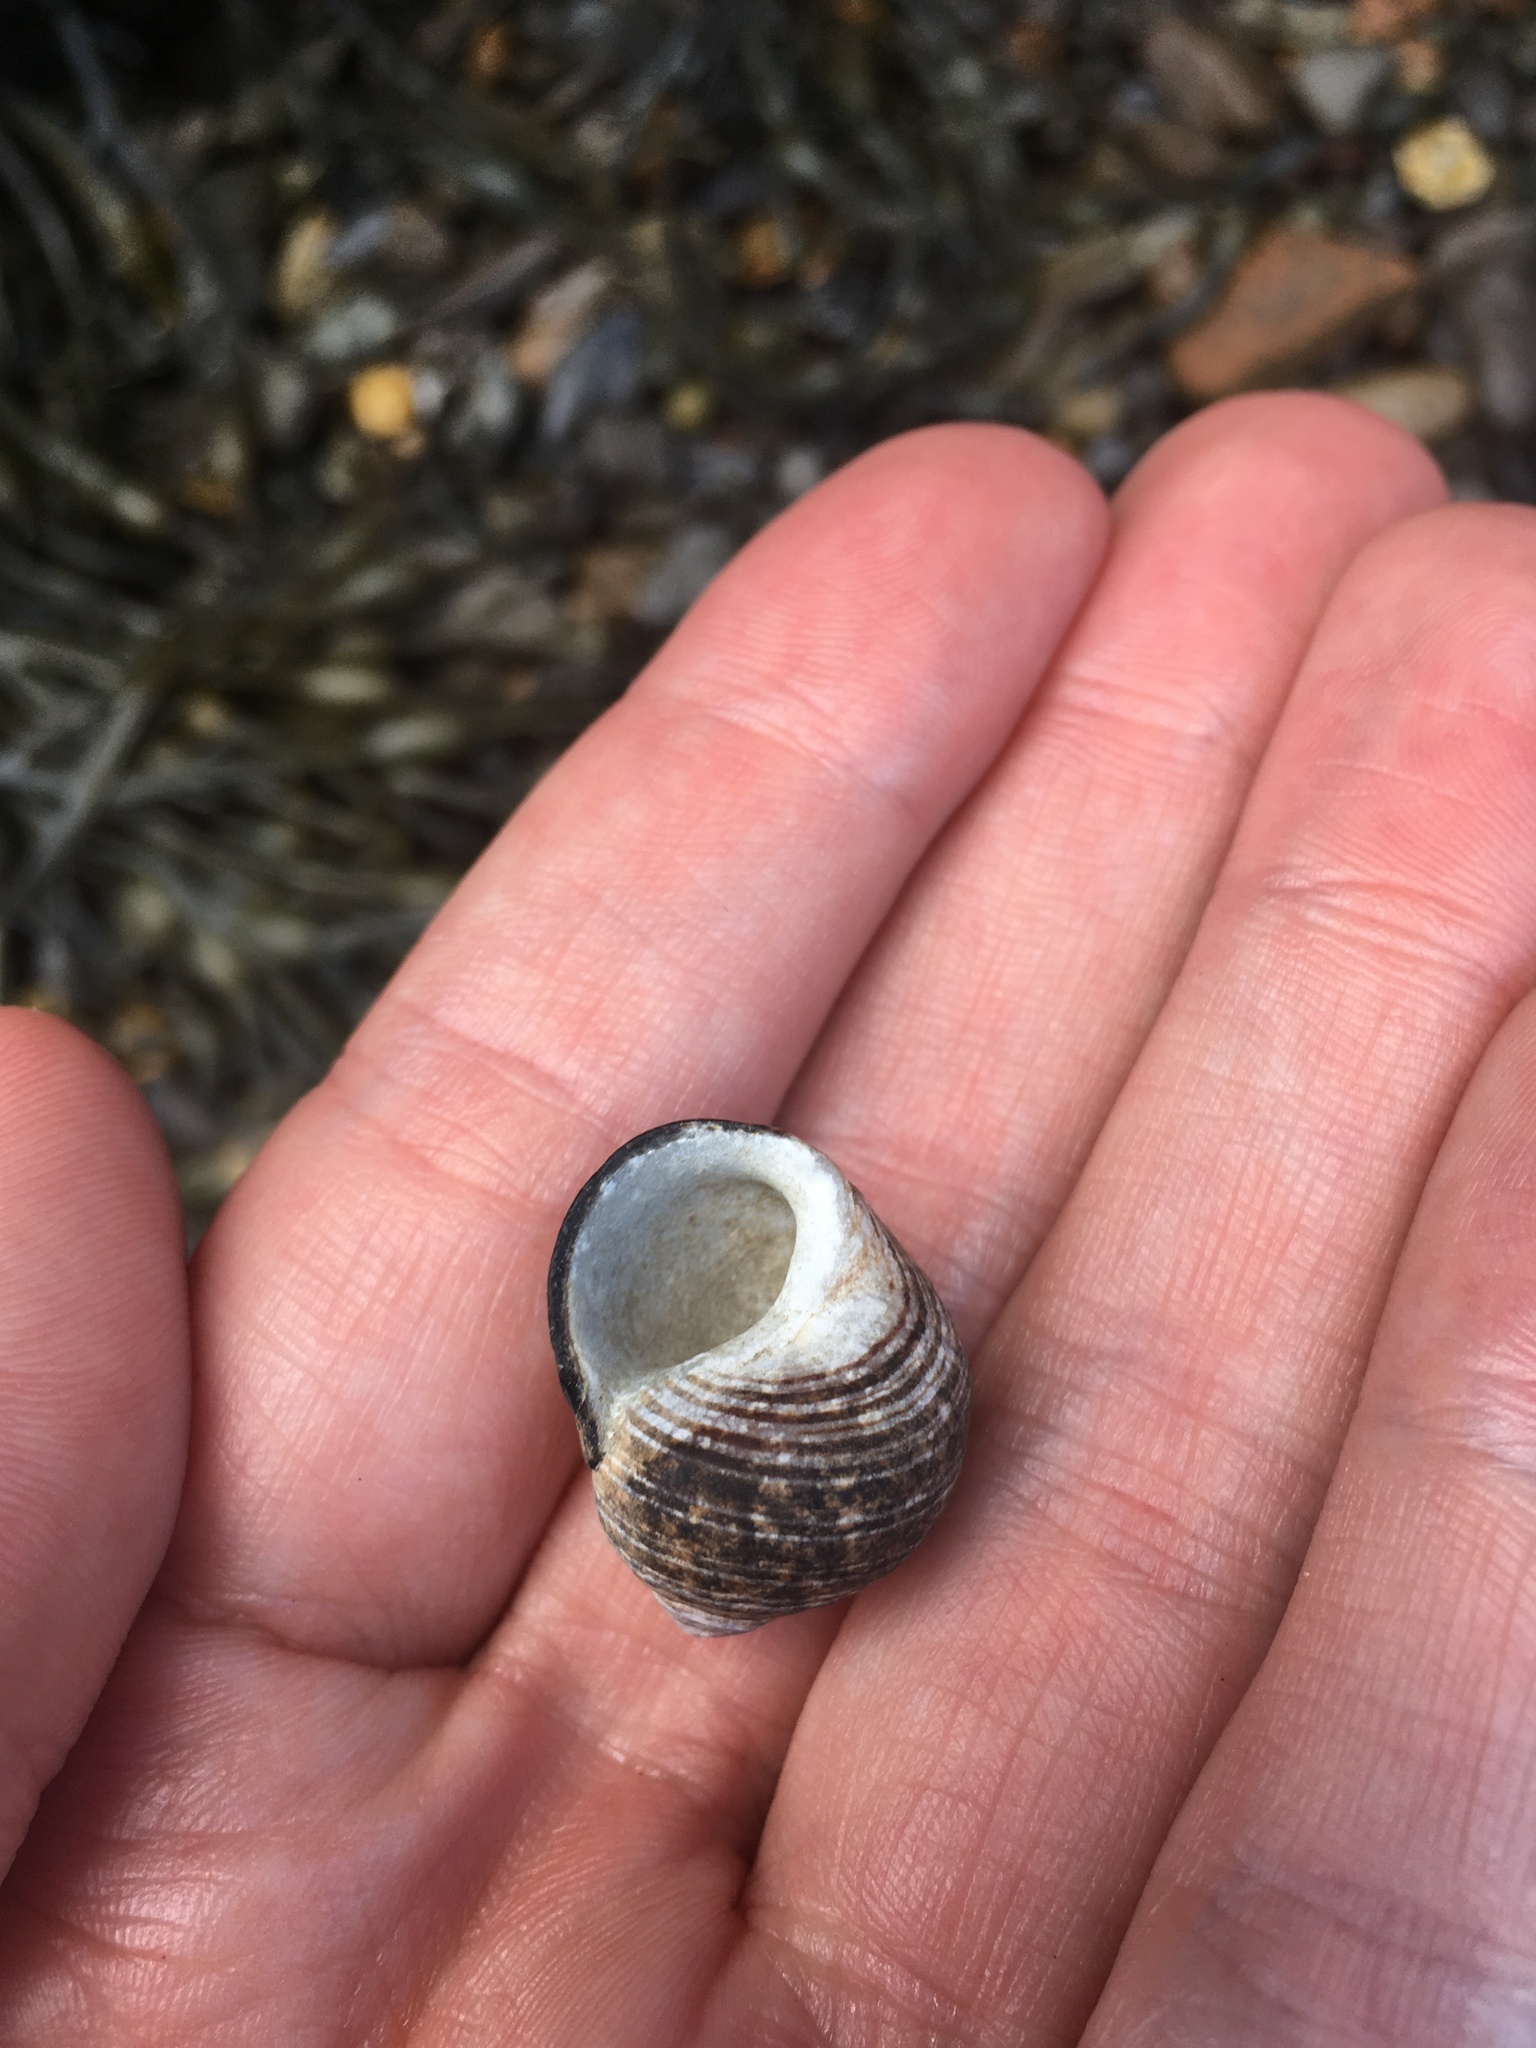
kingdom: Animalia
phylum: Mollusca
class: Gastropoda
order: Littorinimorpha
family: Littorinidae
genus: Littorina
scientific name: Littorina littorea
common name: Common periwinkle
